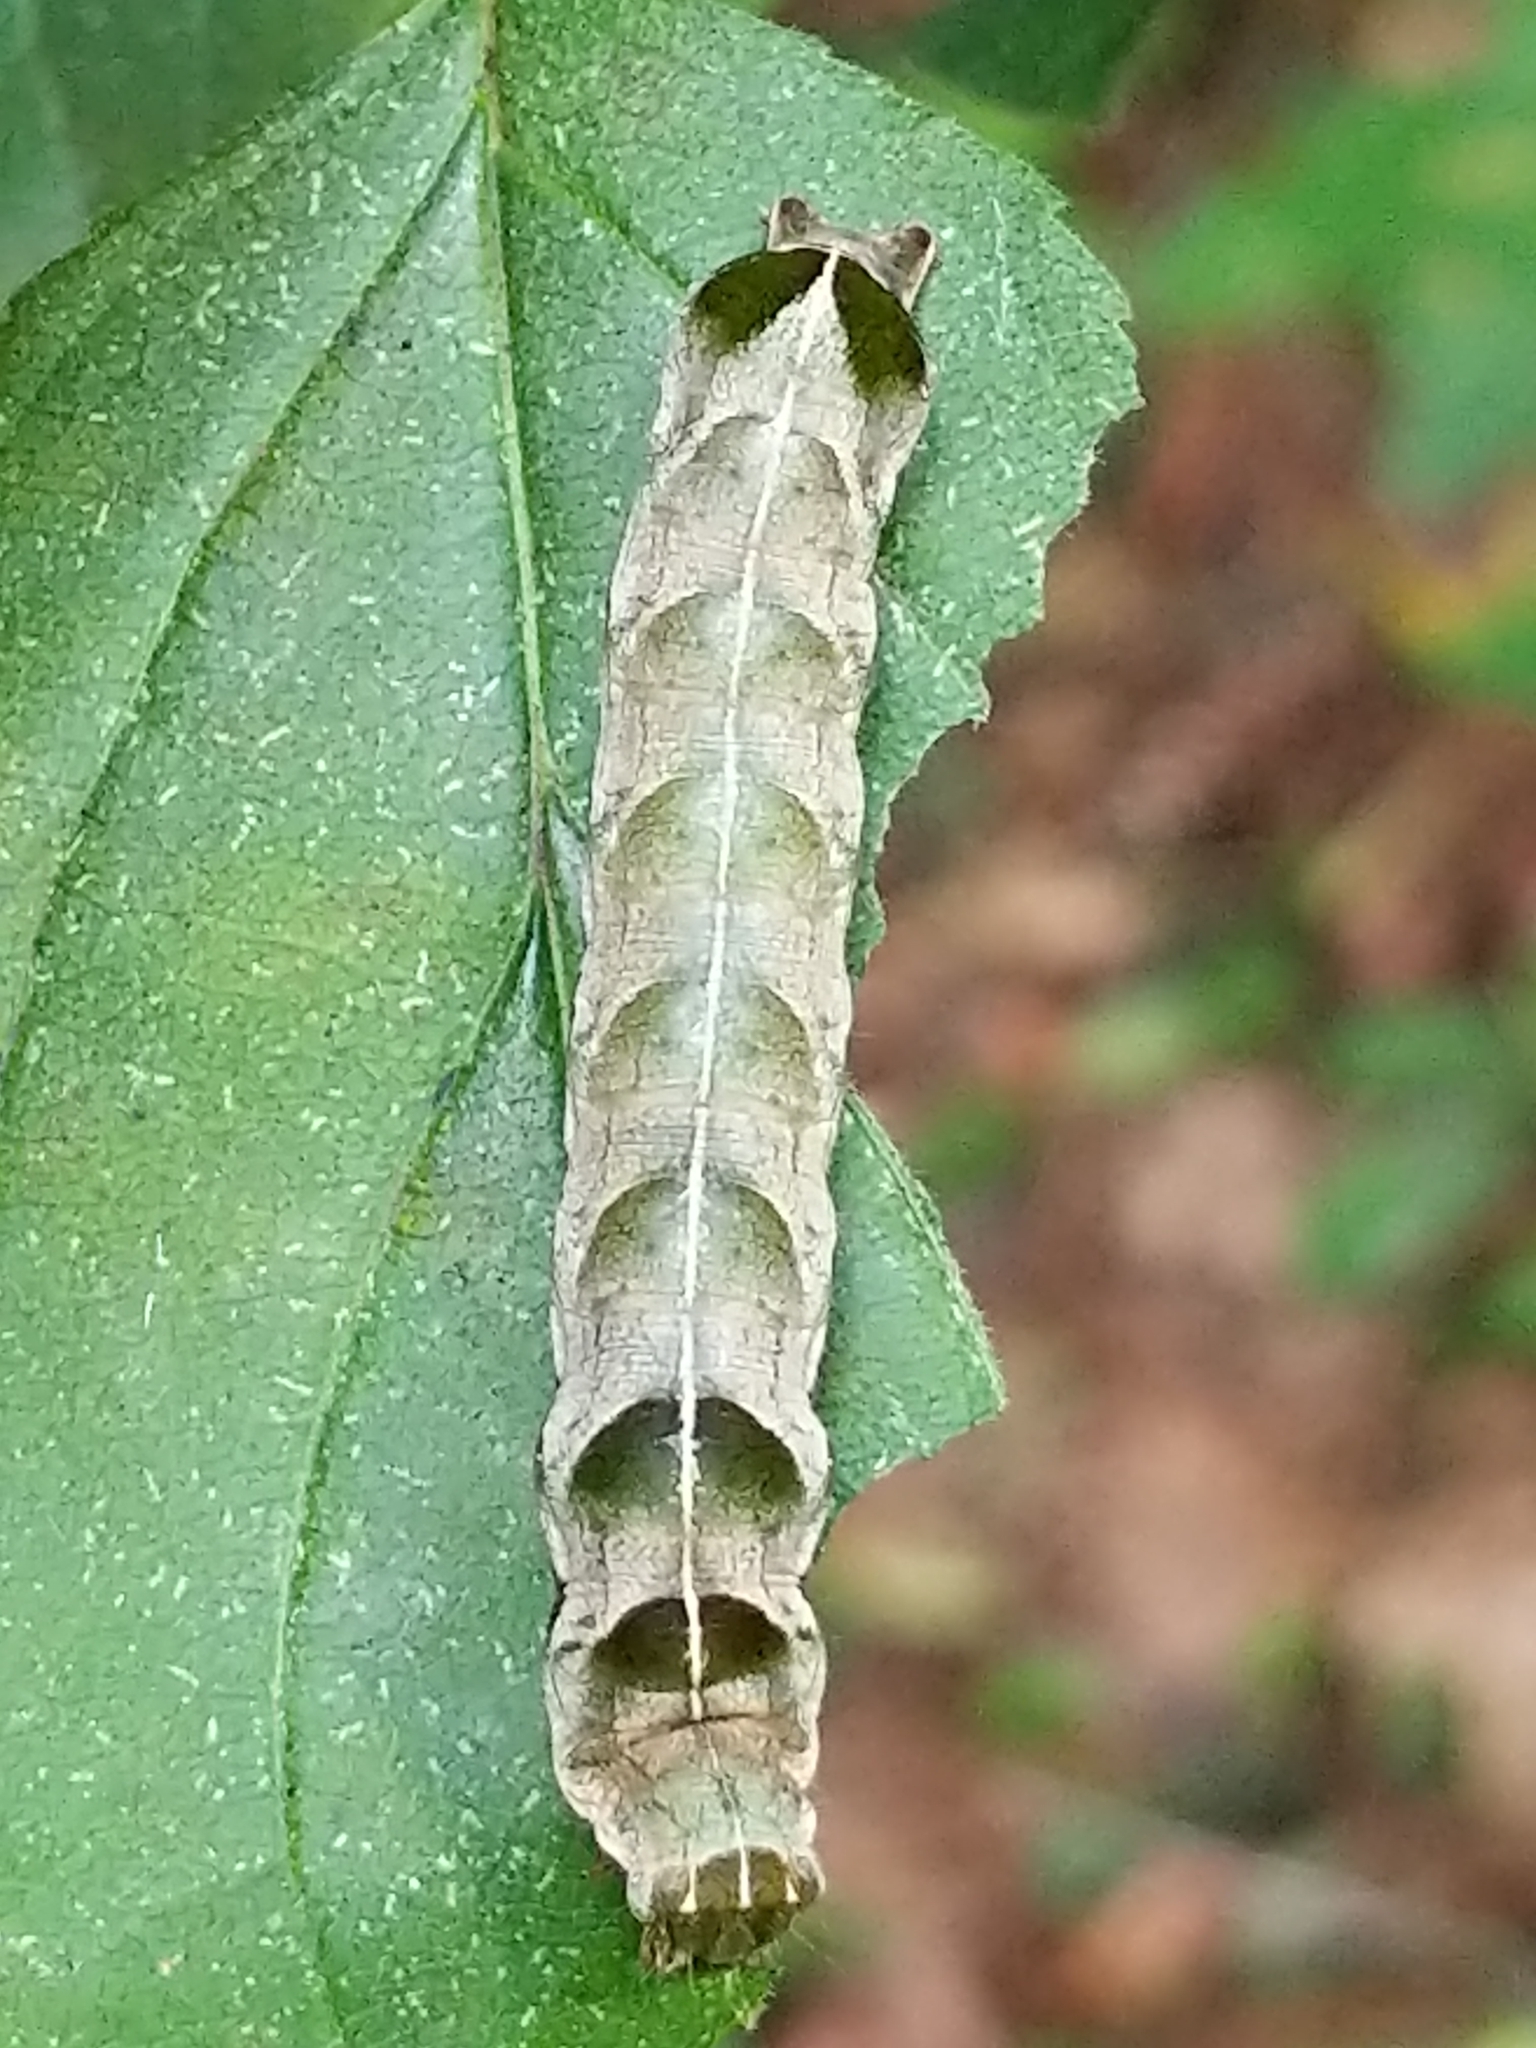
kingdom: Animalia
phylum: Arthropoda
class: Insecta
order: Lepidoptera
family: Noctuidae
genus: Melanchra
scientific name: Melanchra adjuncta
